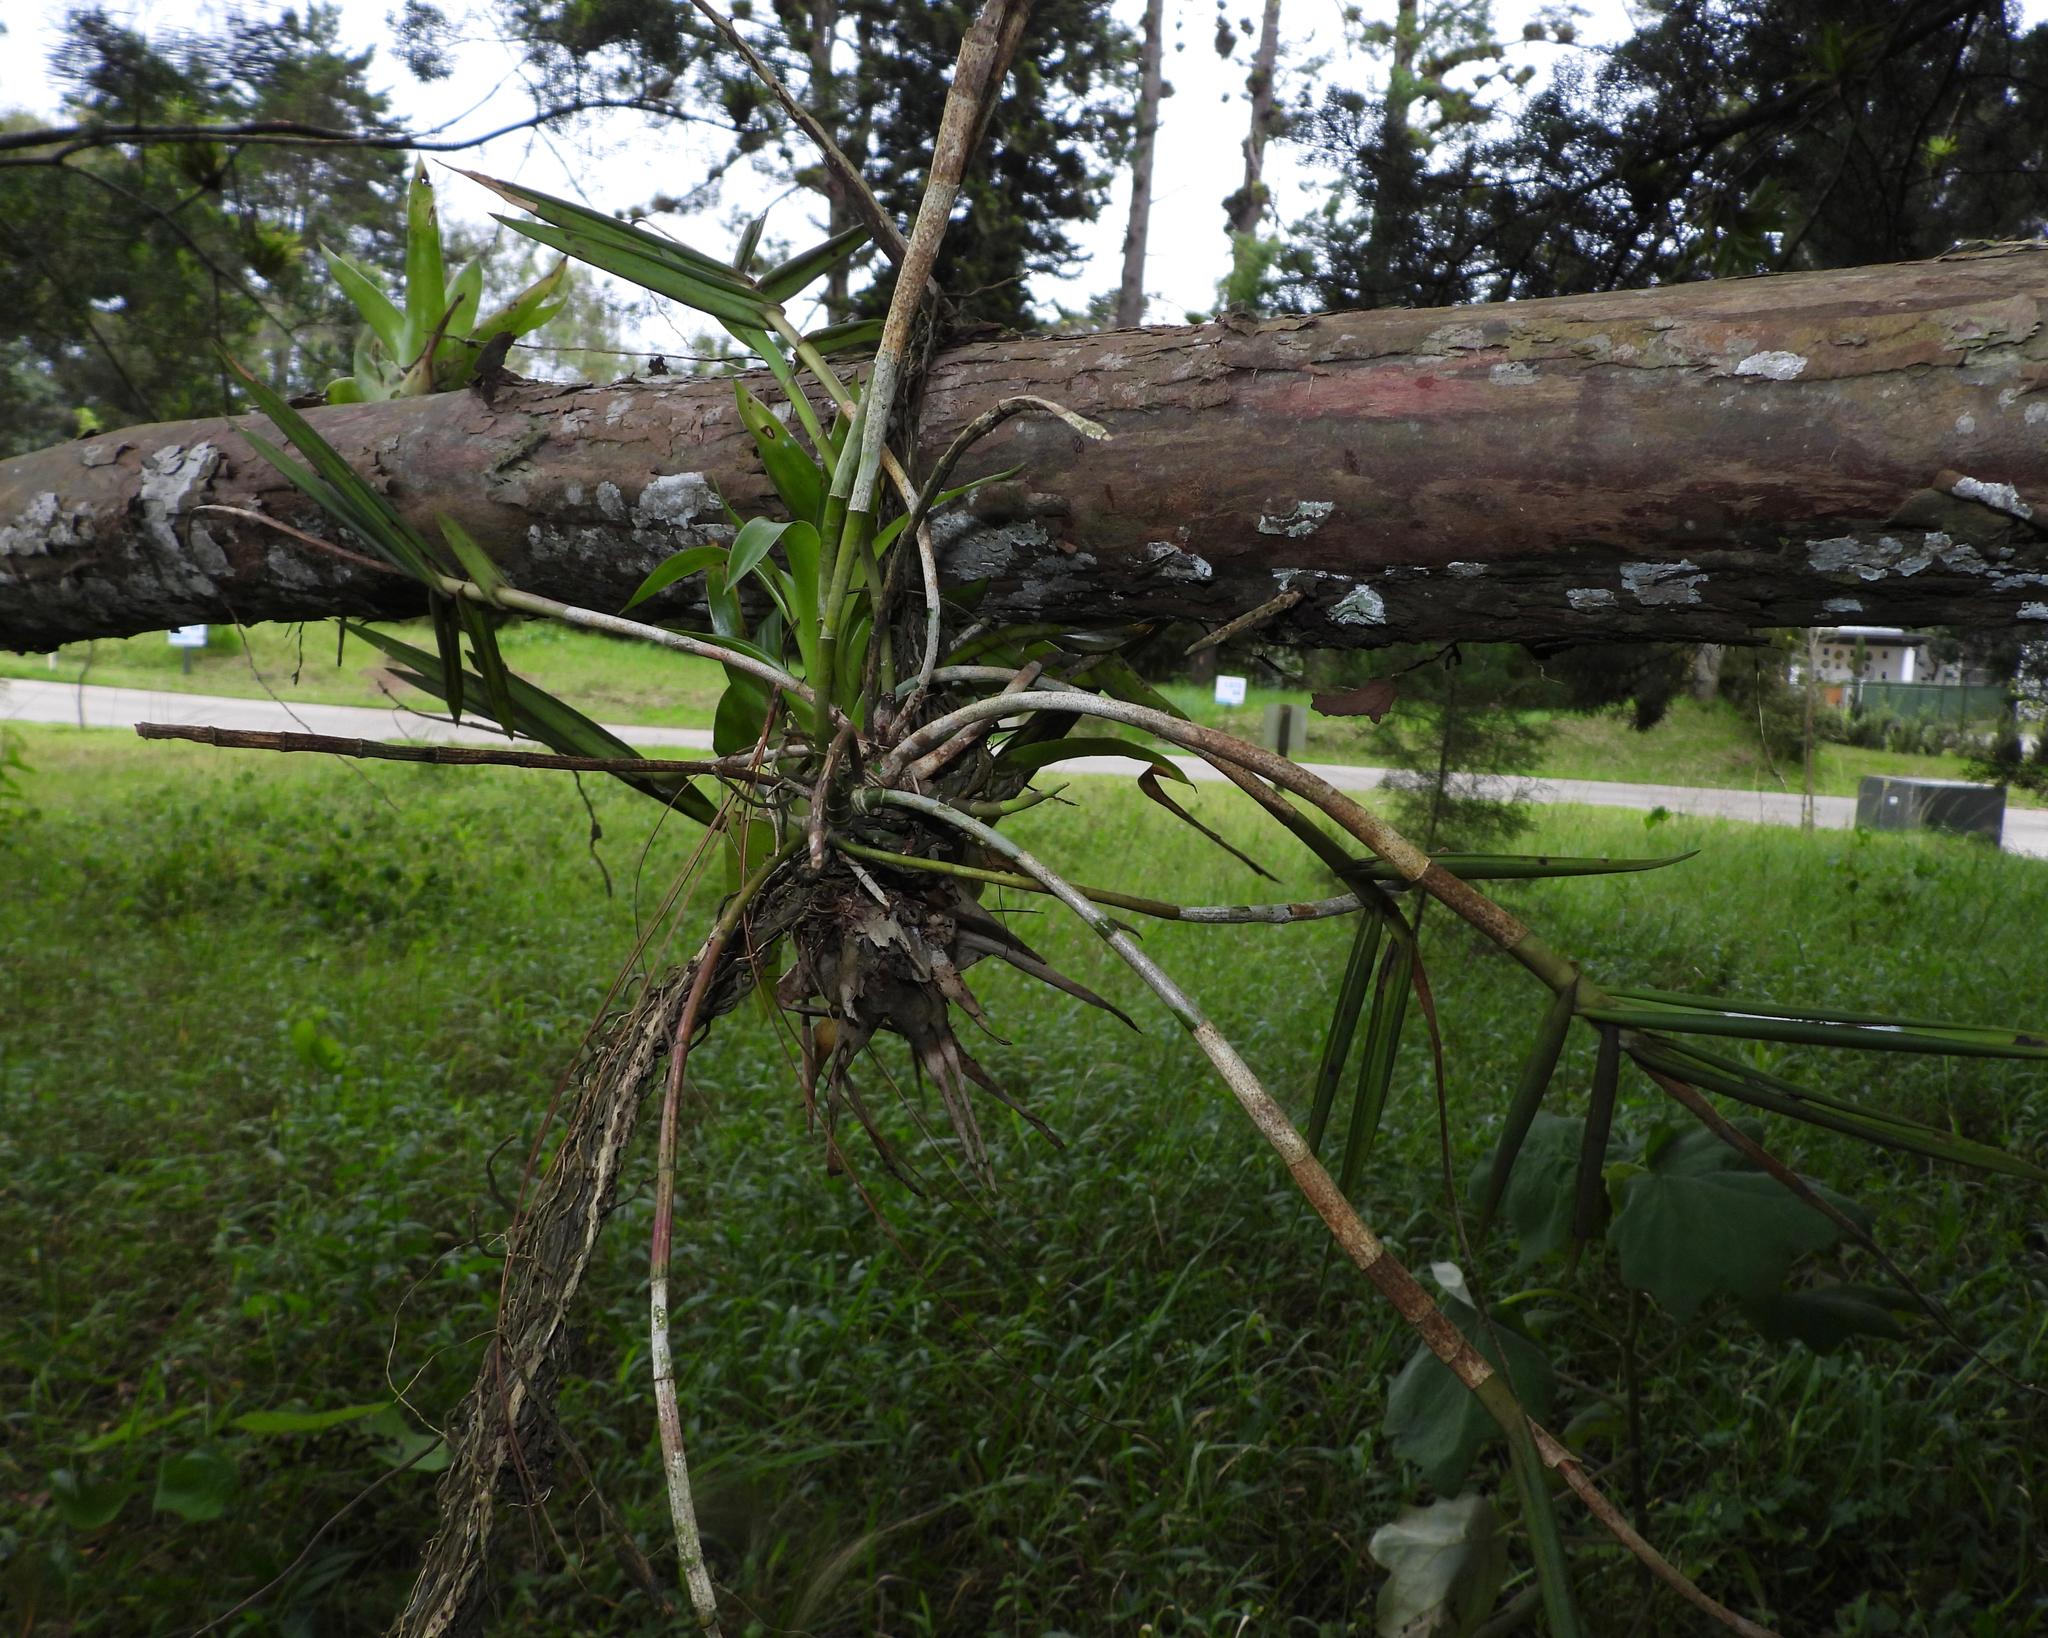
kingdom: Plantae
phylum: Tracheophyta
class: Liliopsida
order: Asparagales
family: Orchidaceae
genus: Epidendrum
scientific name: Epidendrum laucheanum
